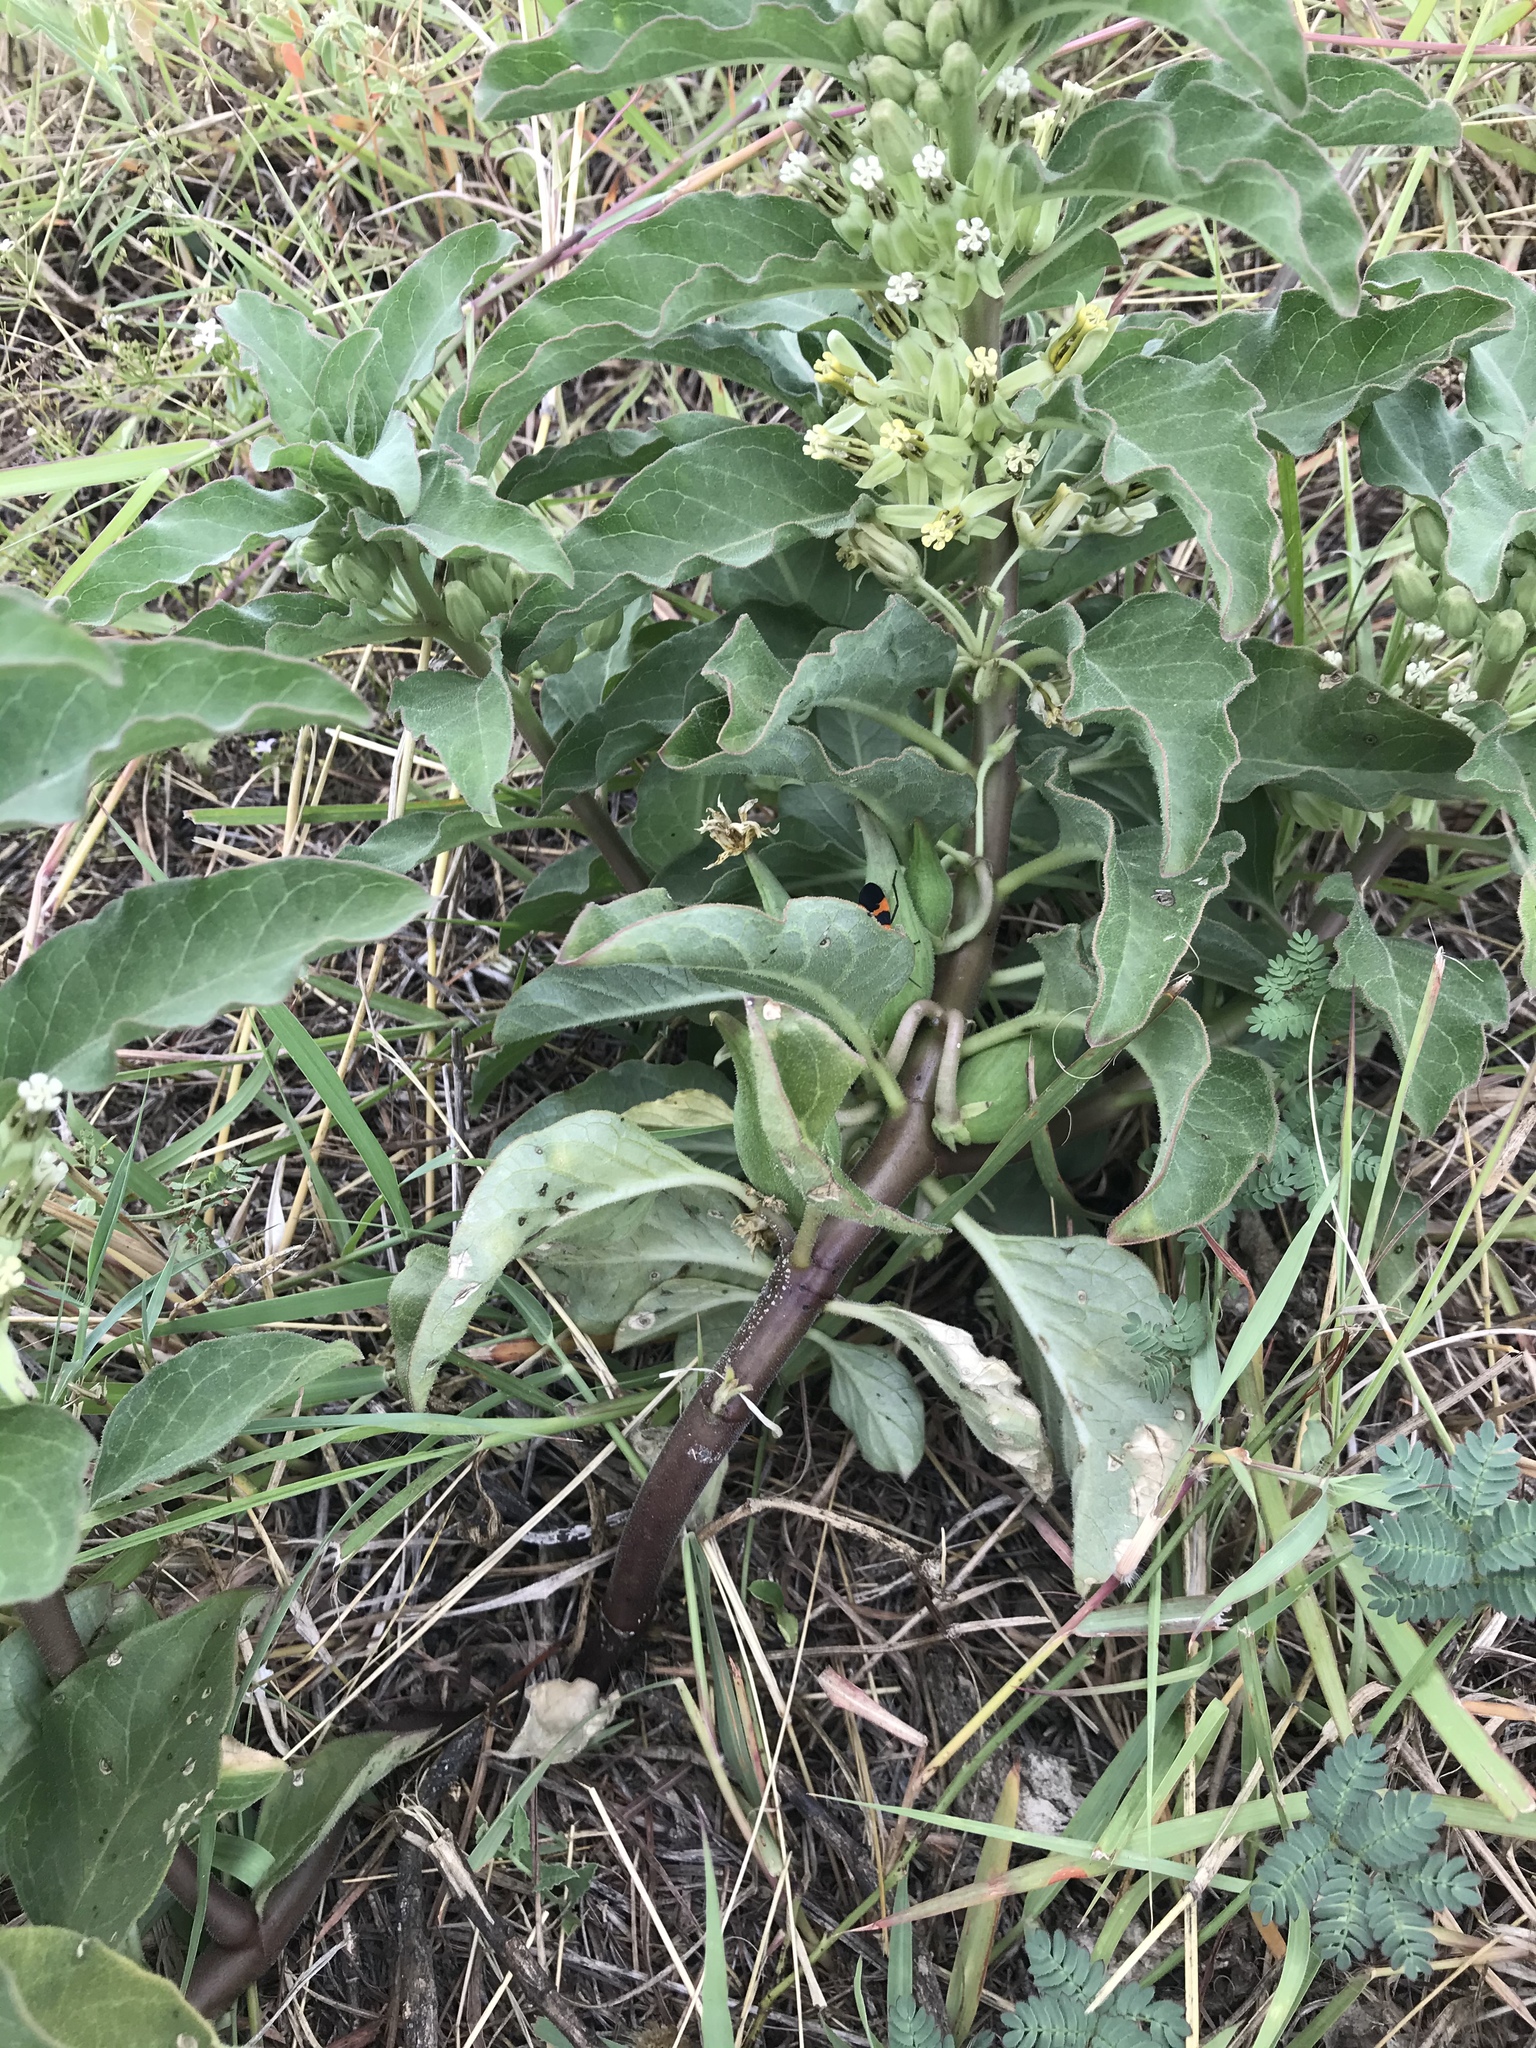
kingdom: Plantae
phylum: Tracheophyta
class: Magnoliopsida
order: Gentianales
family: Apocynaceae
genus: Asclepias
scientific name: Asclepias oenotheroides
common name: Zizotes milkweed
